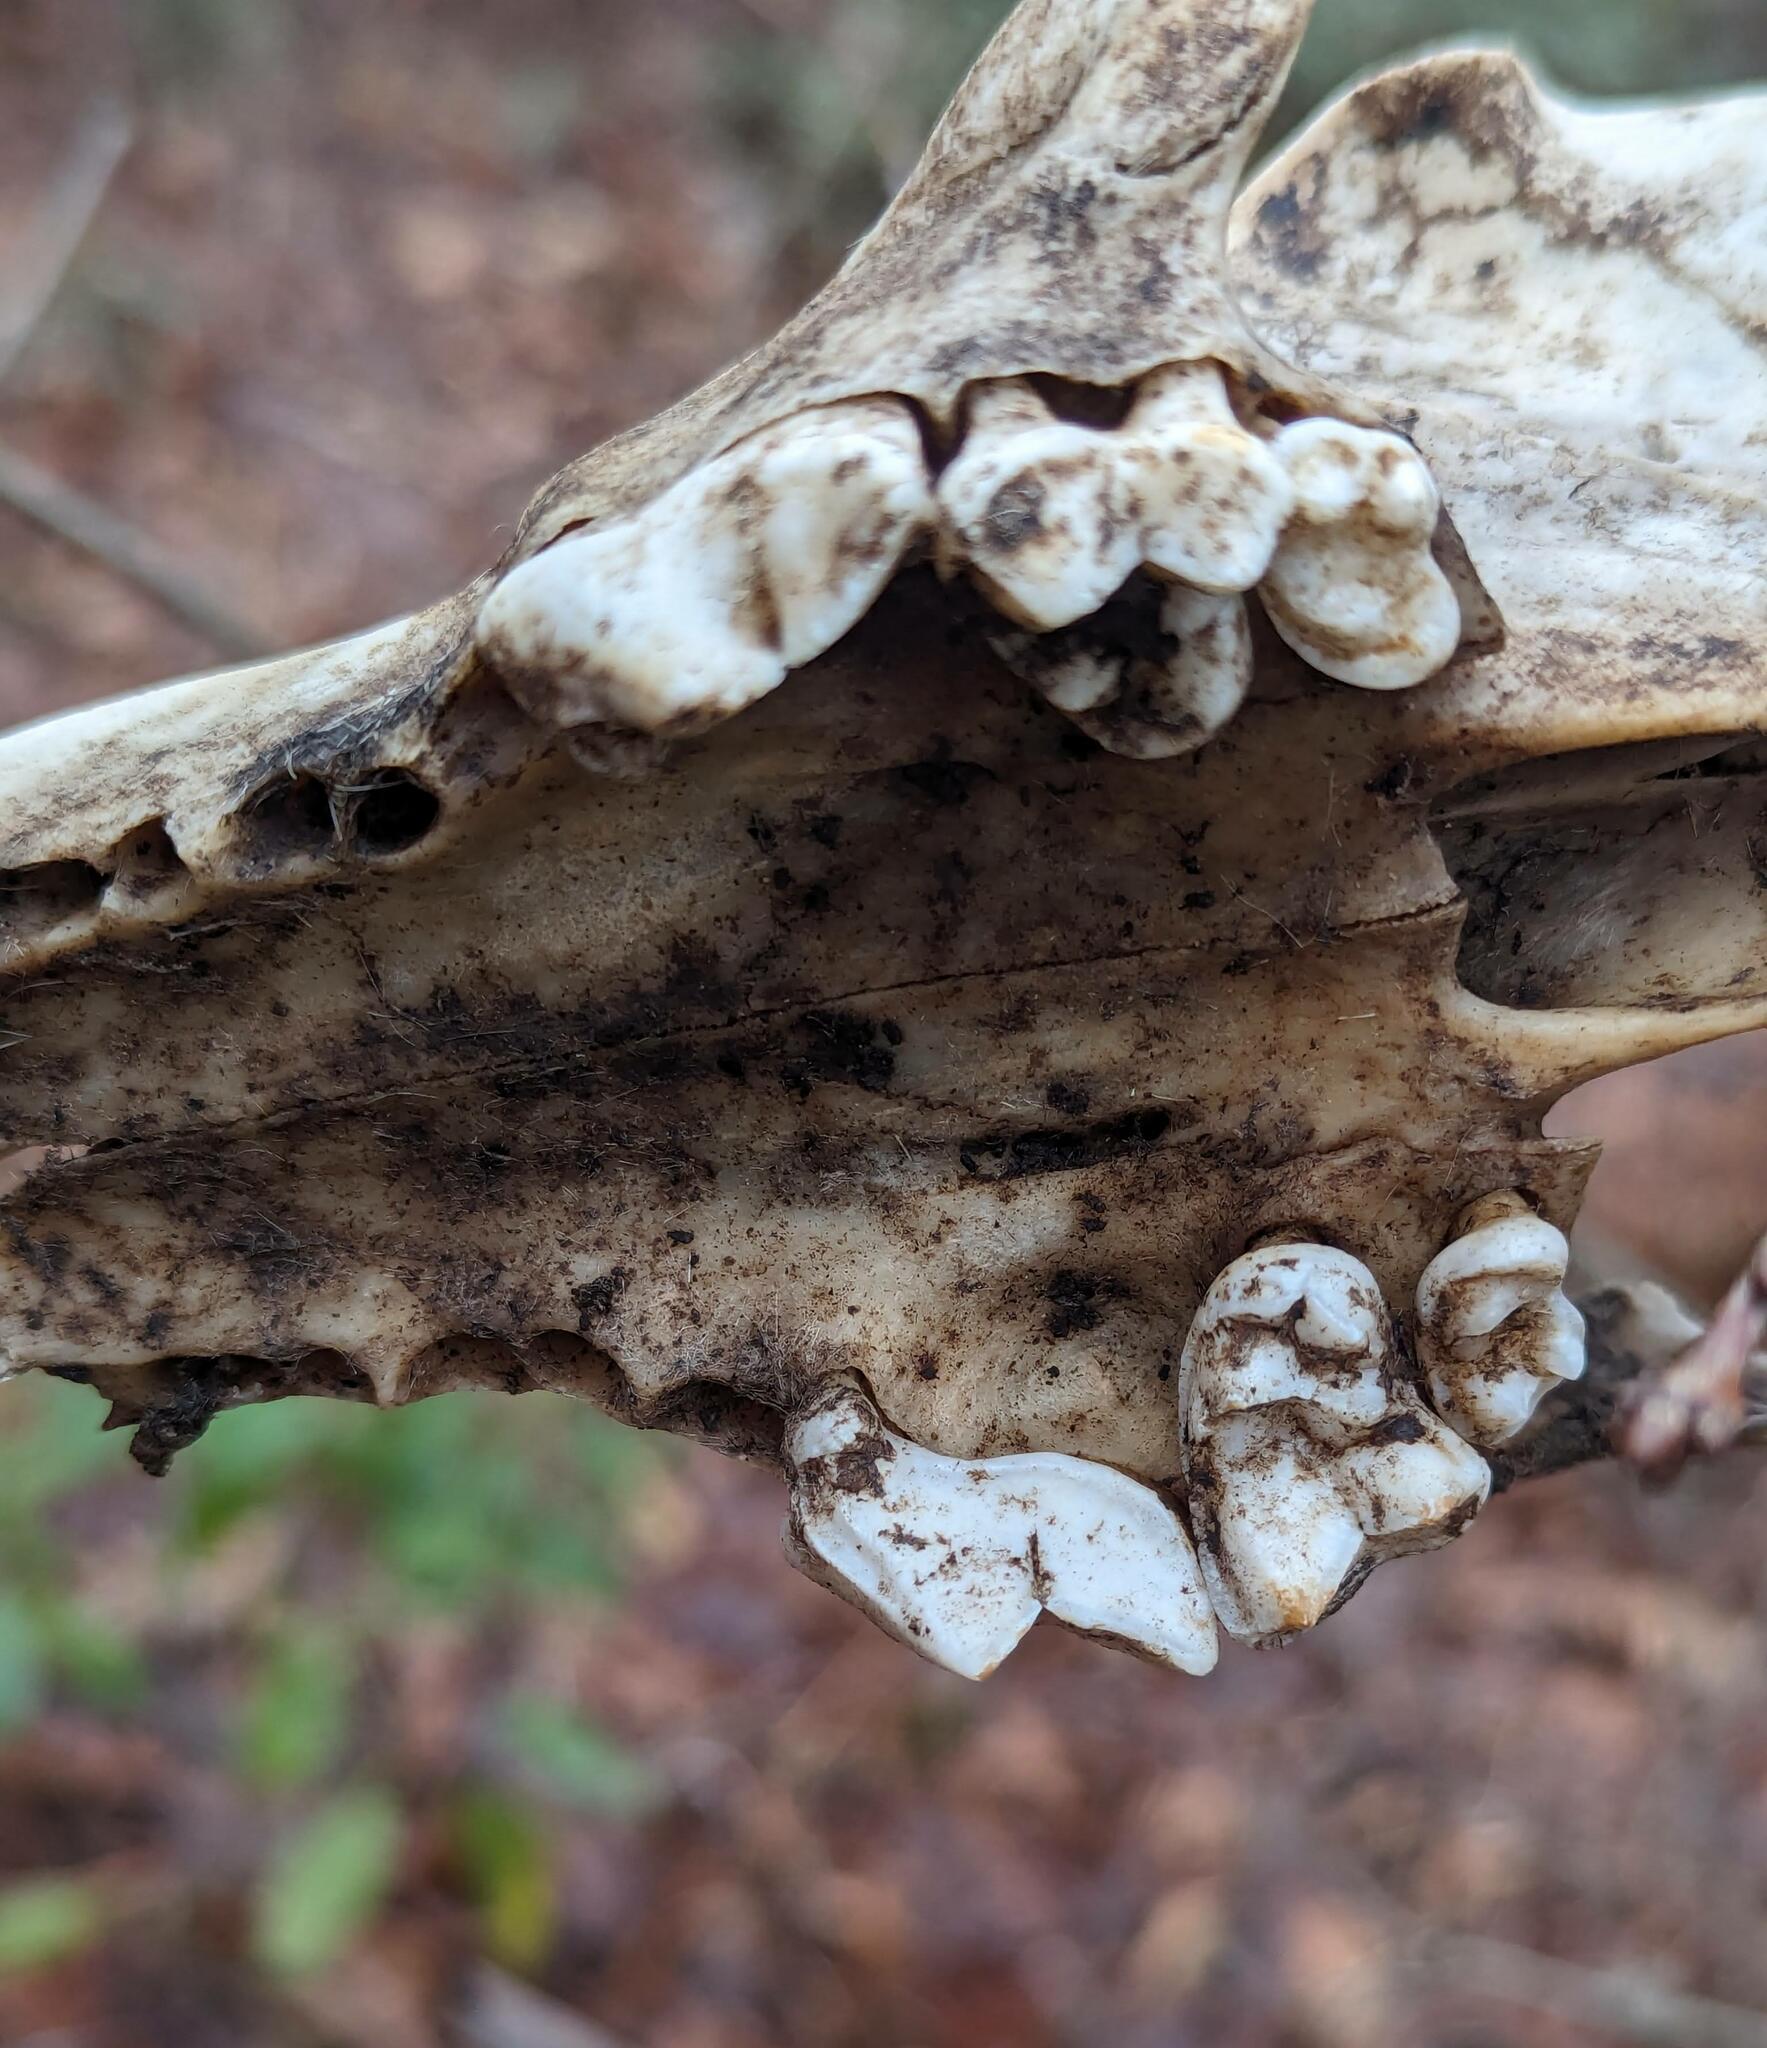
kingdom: Animalia
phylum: Chordata
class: Mammalia
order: Carnivora
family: Canidae
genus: Canis
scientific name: Canis latrans
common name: Coyote
